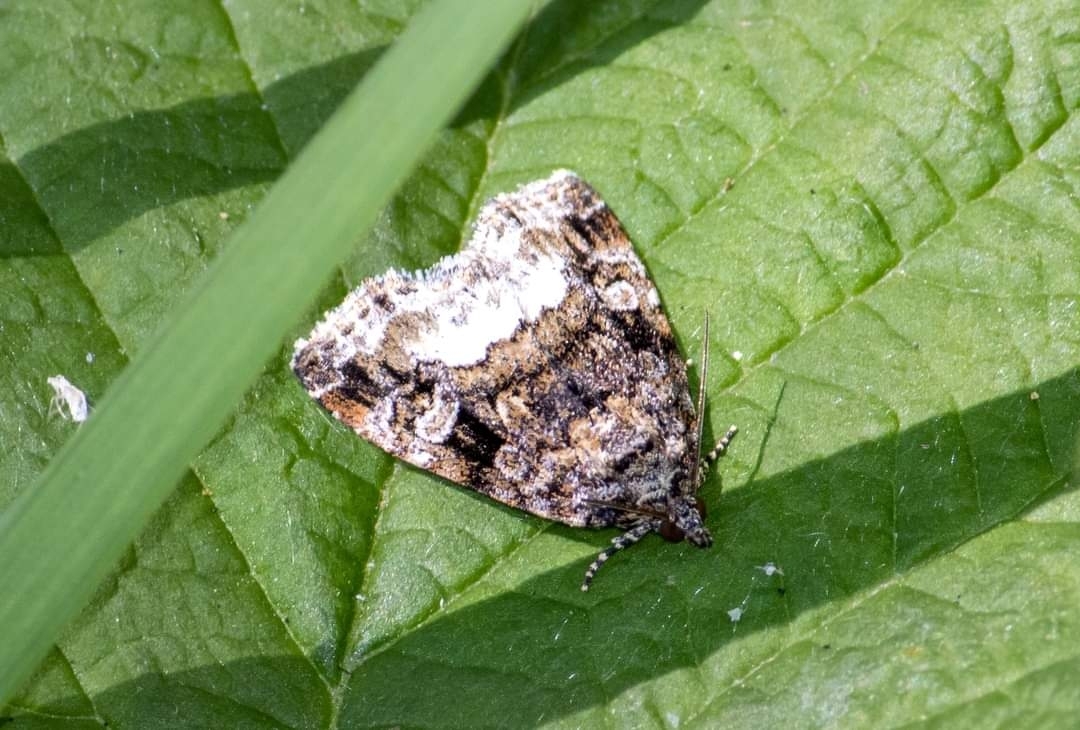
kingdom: Animalia
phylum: Arthropoda
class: Insecta
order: Lepidoptera
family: Noctuidae
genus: Deltote
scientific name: Deltote pygarga
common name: Marbled white spot
